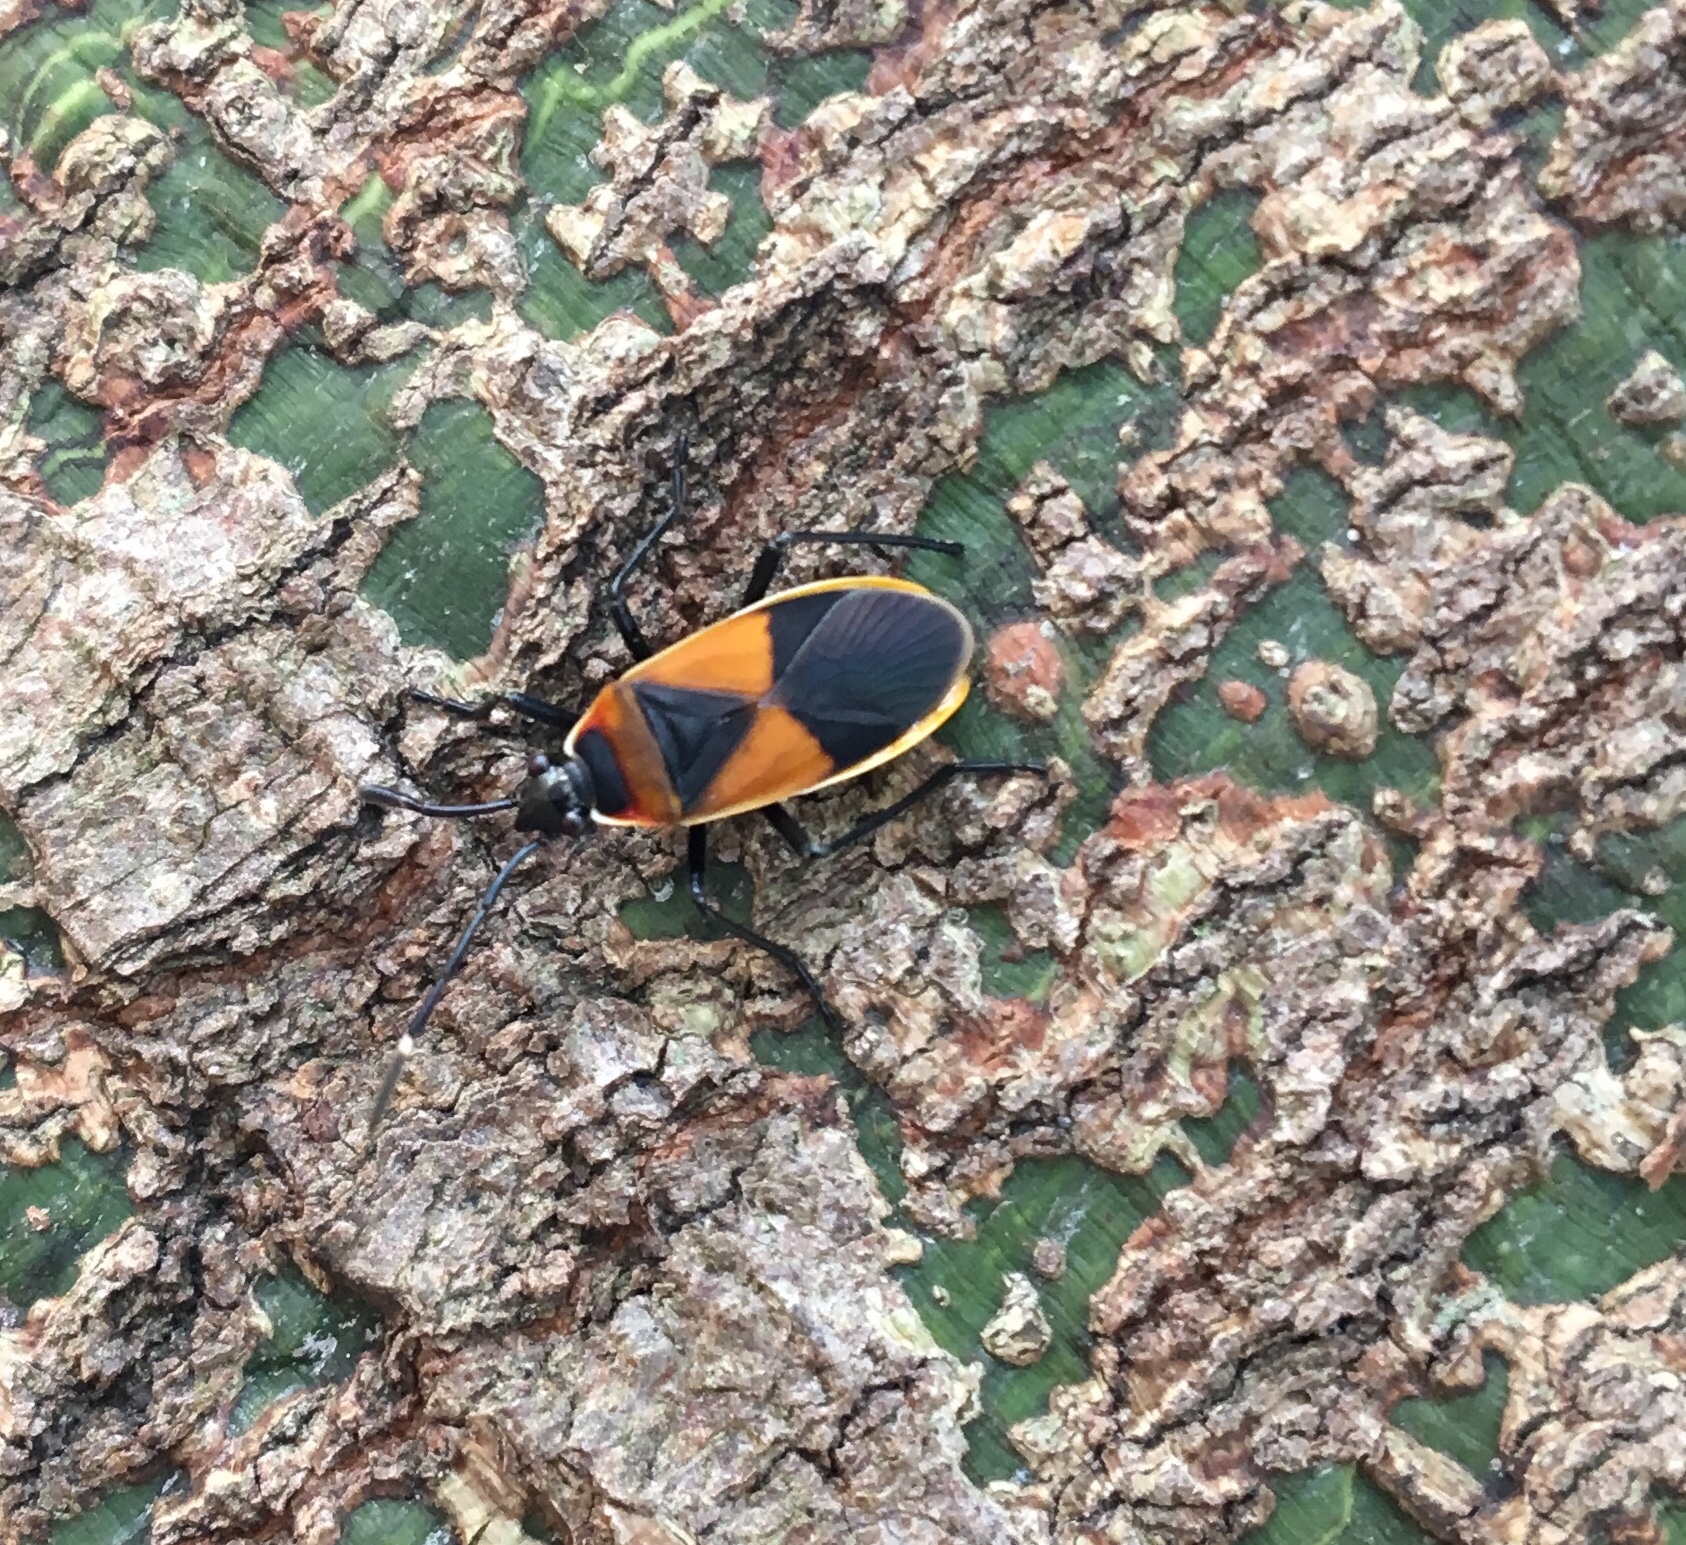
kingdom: Animalia
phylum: Arthropoda
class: Insecta
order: Hemiptera
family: Pyrrhocoridae
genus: Dindymus
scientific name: Dindymus
